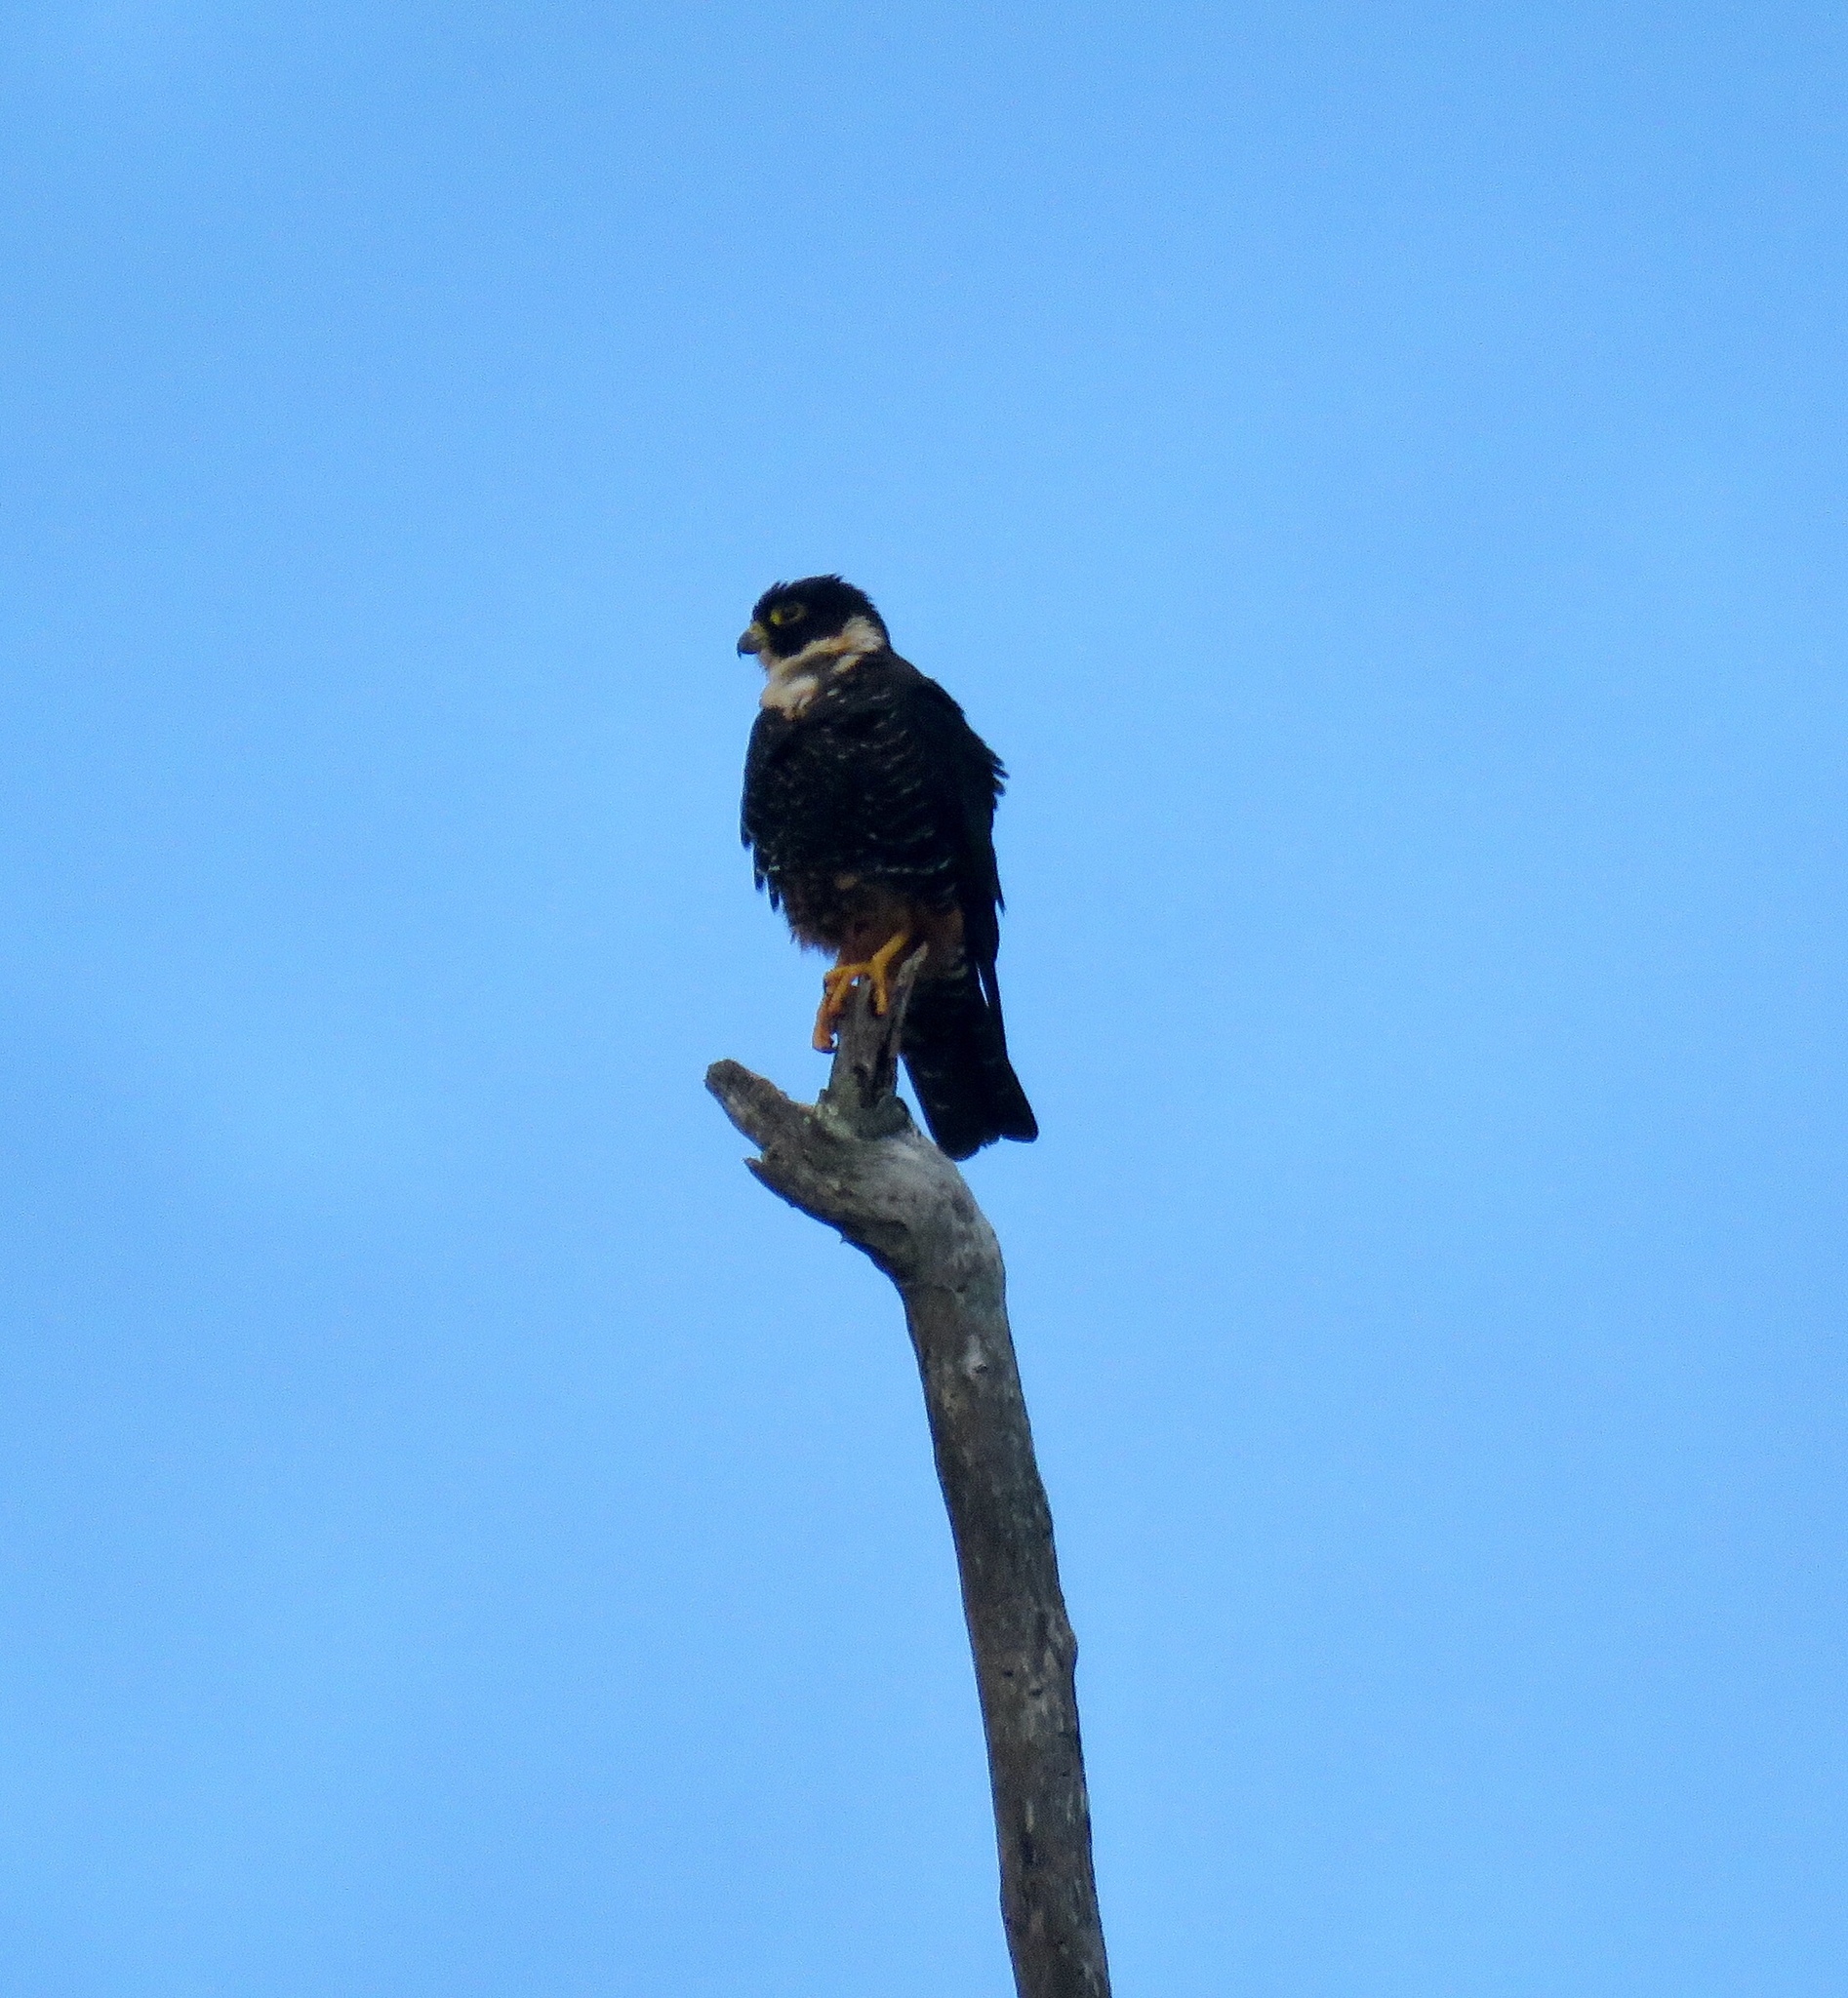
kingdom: Animalia
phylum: Chordata
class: Aves
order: Falconiformes
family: Falconidae
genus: Falco
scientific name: Falco rufigularis
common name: Bat falcon
